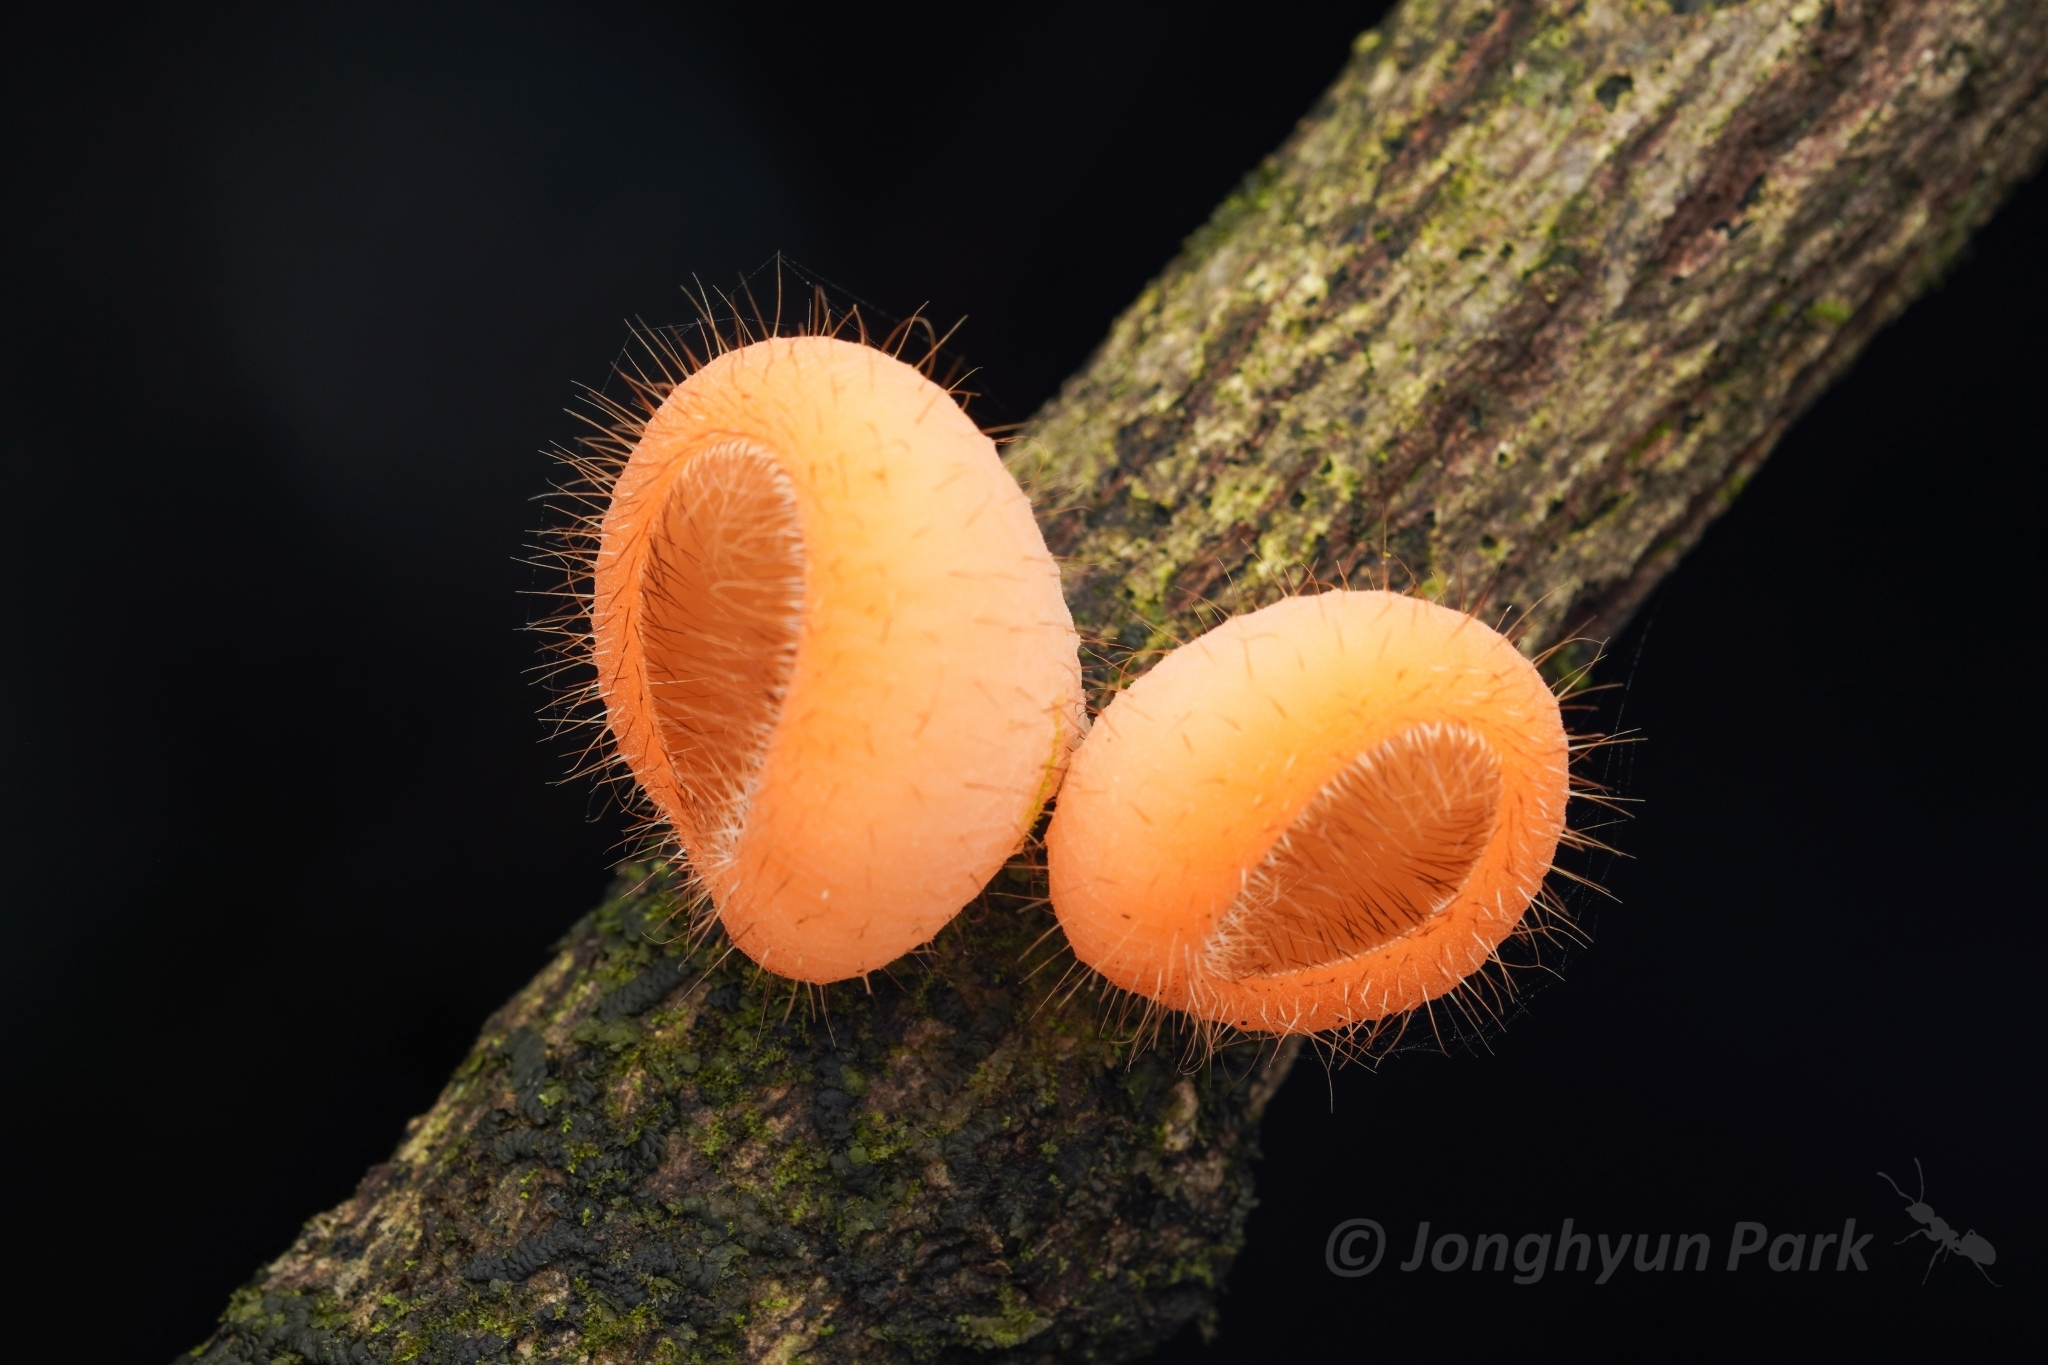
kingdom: Fungi
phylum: Ascomycota
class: Pezizomycetes
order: Pezizales
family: Sarcoscyphaceae
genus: Cookeina
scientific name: Cookeina tricholoma
